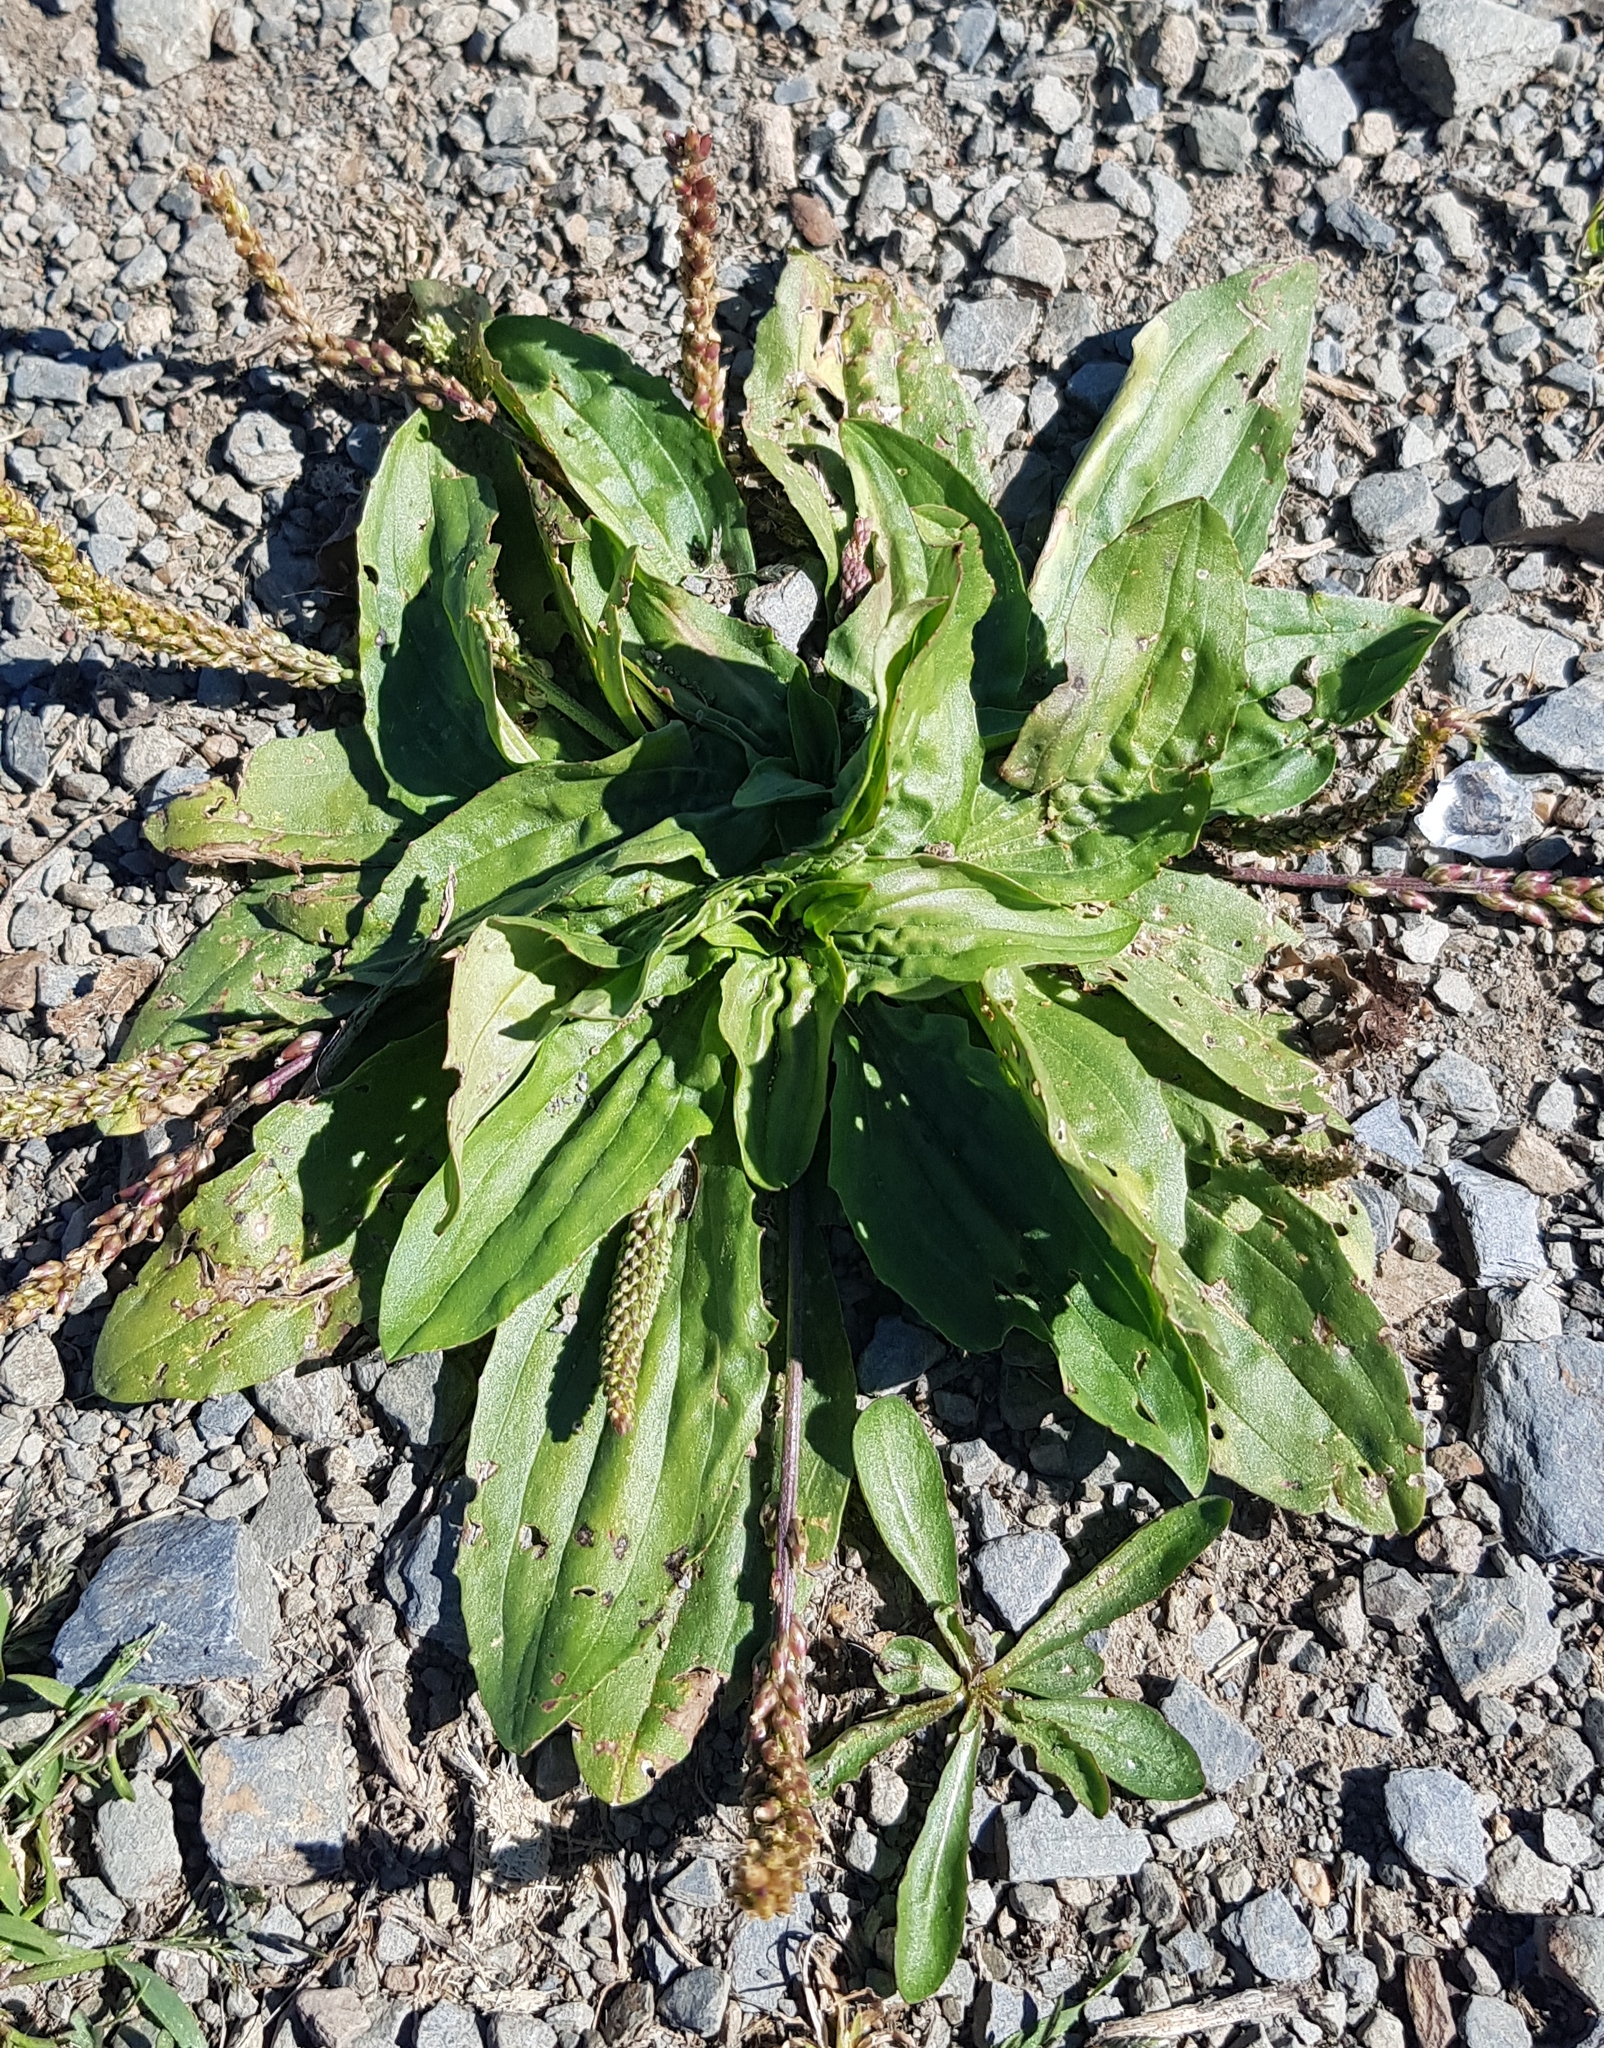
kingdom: Plantae
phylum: Tracheophyta
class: Magnoliopsida
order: Lamiales
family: Plantaginaceae
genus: Plantago
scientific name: Plantago depressa
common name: Depressed plantain
